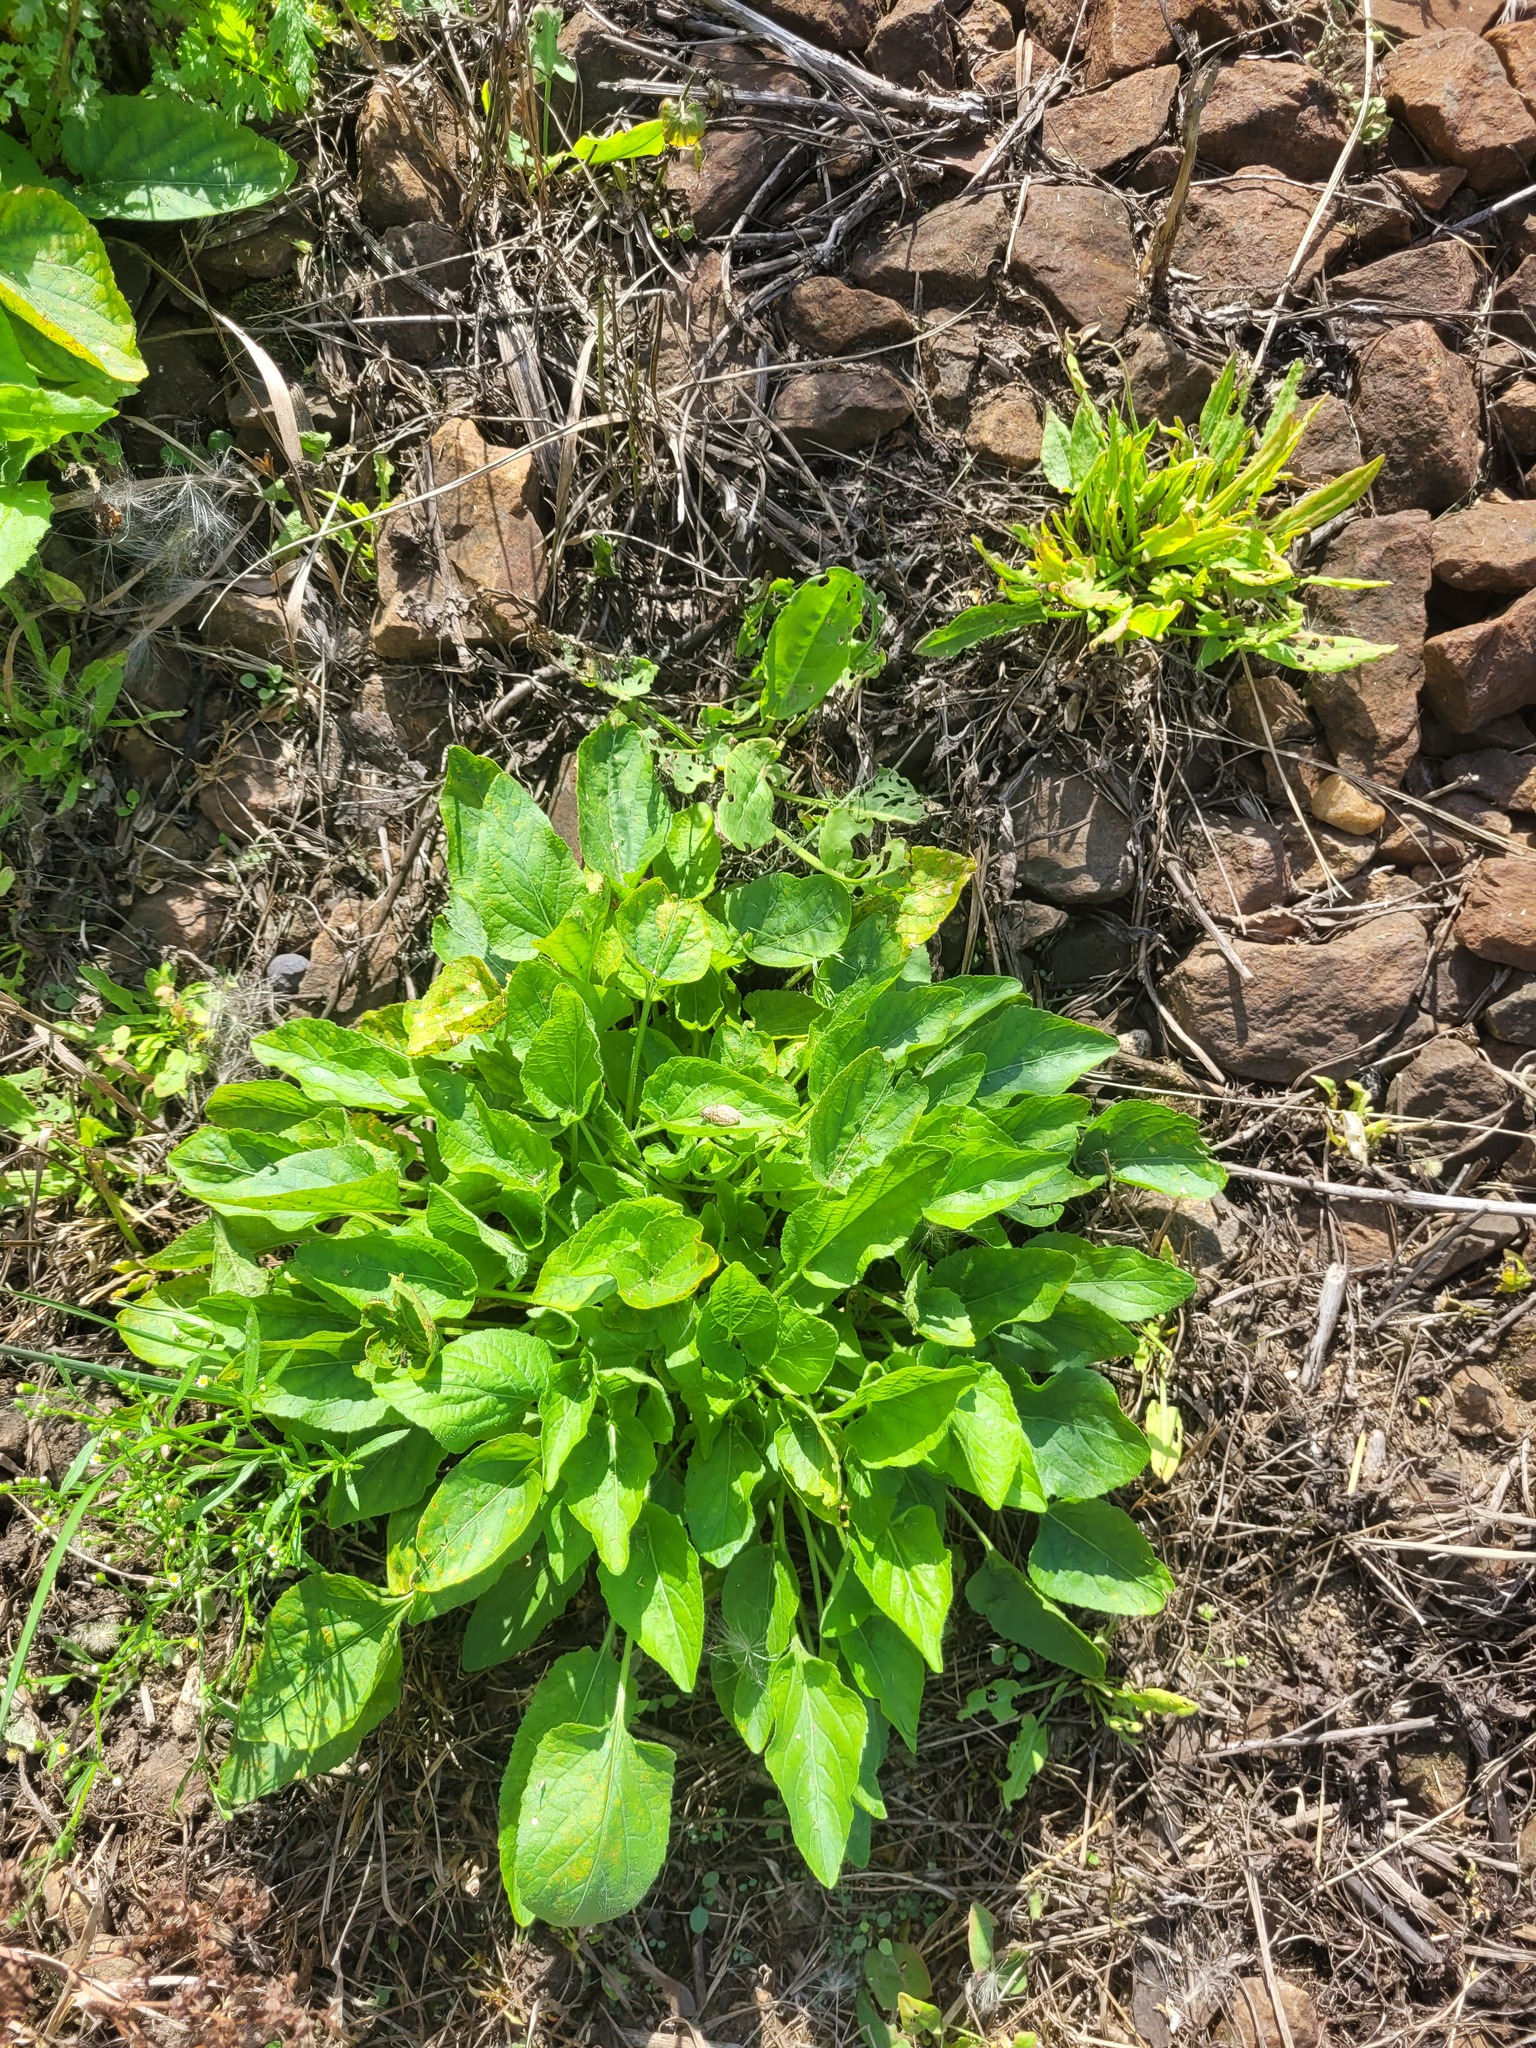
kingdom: Plantae
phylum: Tracheophyta
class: Magnoliopsida
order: Malpighiales
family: Violaceae
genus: Viola
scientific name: Viola hirta
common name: Hairy violet
